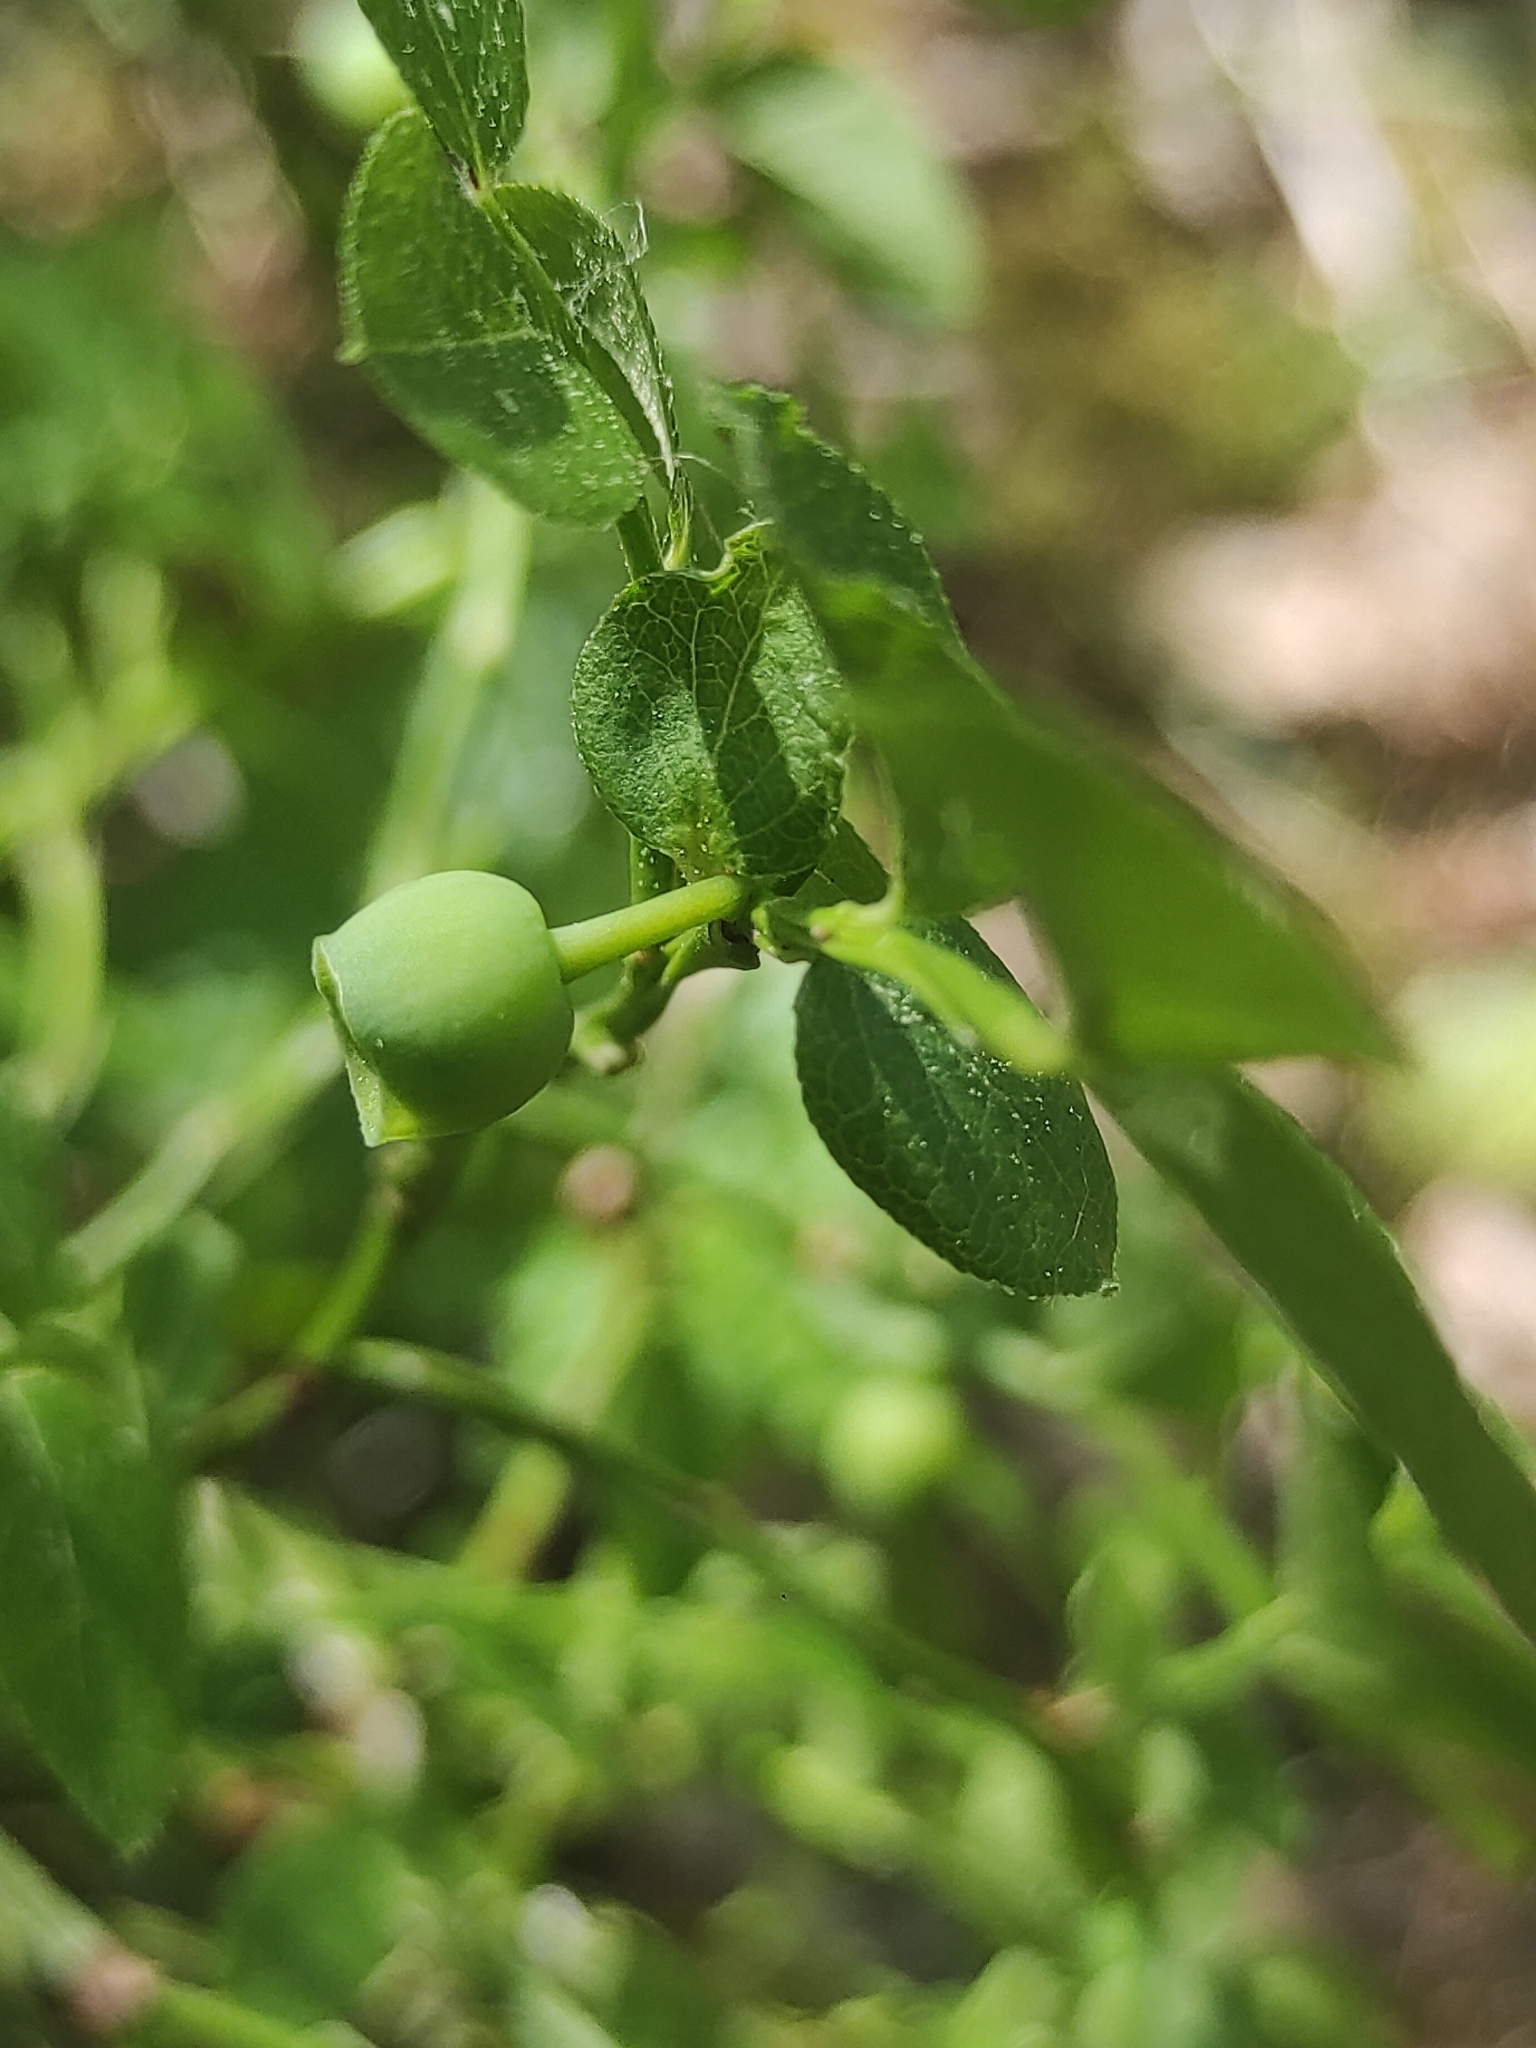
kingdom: Plantae
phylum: Tracheophyta
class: Magnoliopsida
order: Ericales
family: Ericaceae
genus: Vaccinium
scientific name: Vaccinium myrtillus
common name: Bilberry
